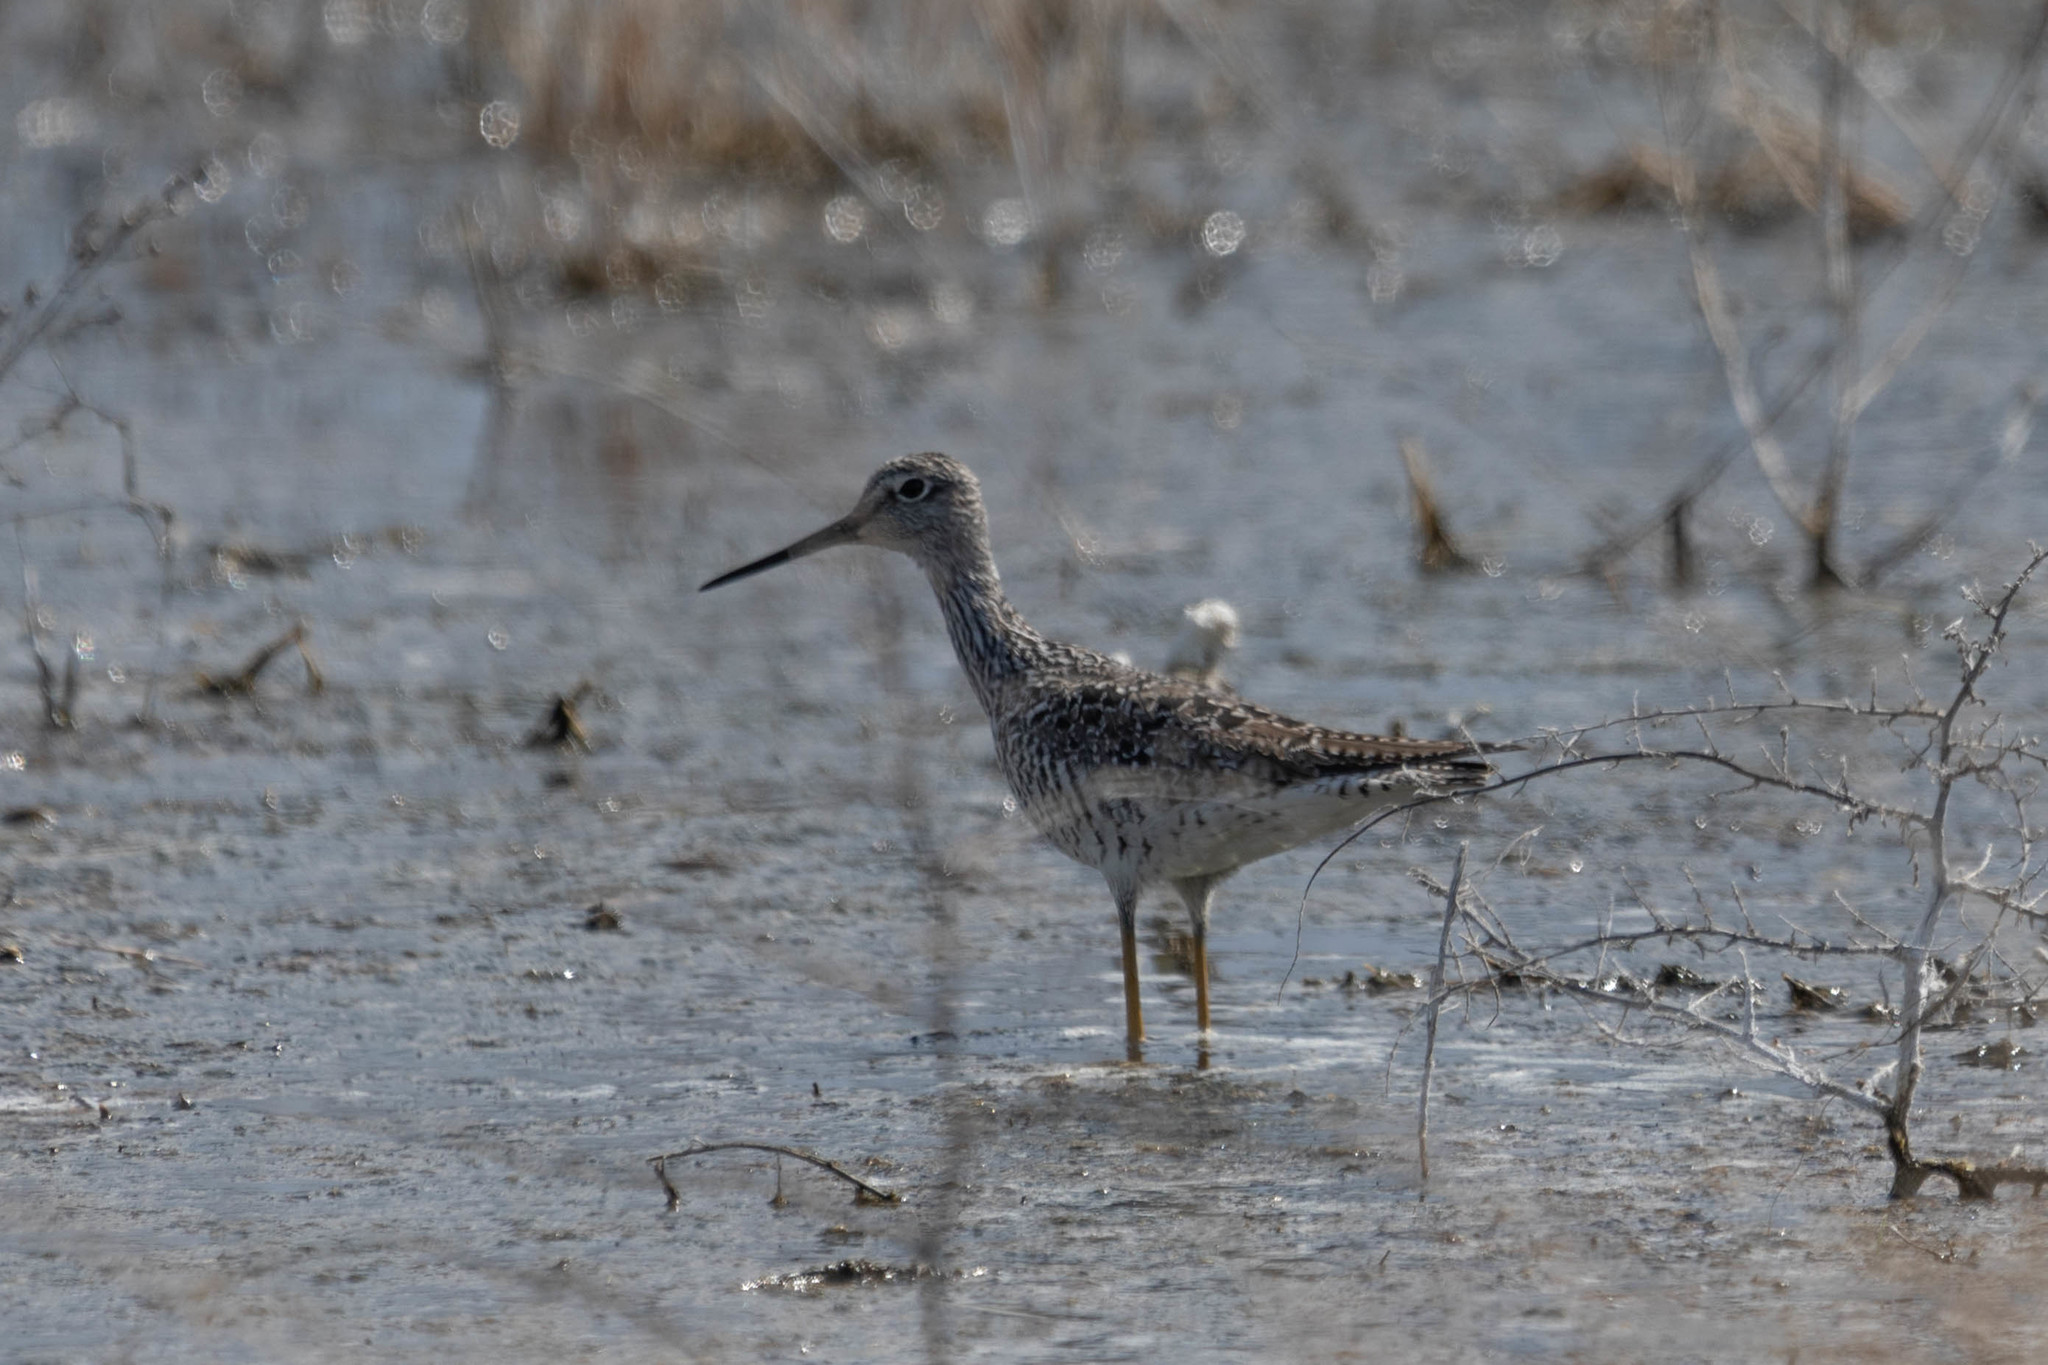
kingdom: Animalia
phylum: Chordata
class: Aves
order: Charadriiformes
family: Scolopacidae
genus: Tringa
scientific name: Tringa melanoleuca
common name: Greater yellowlegs
